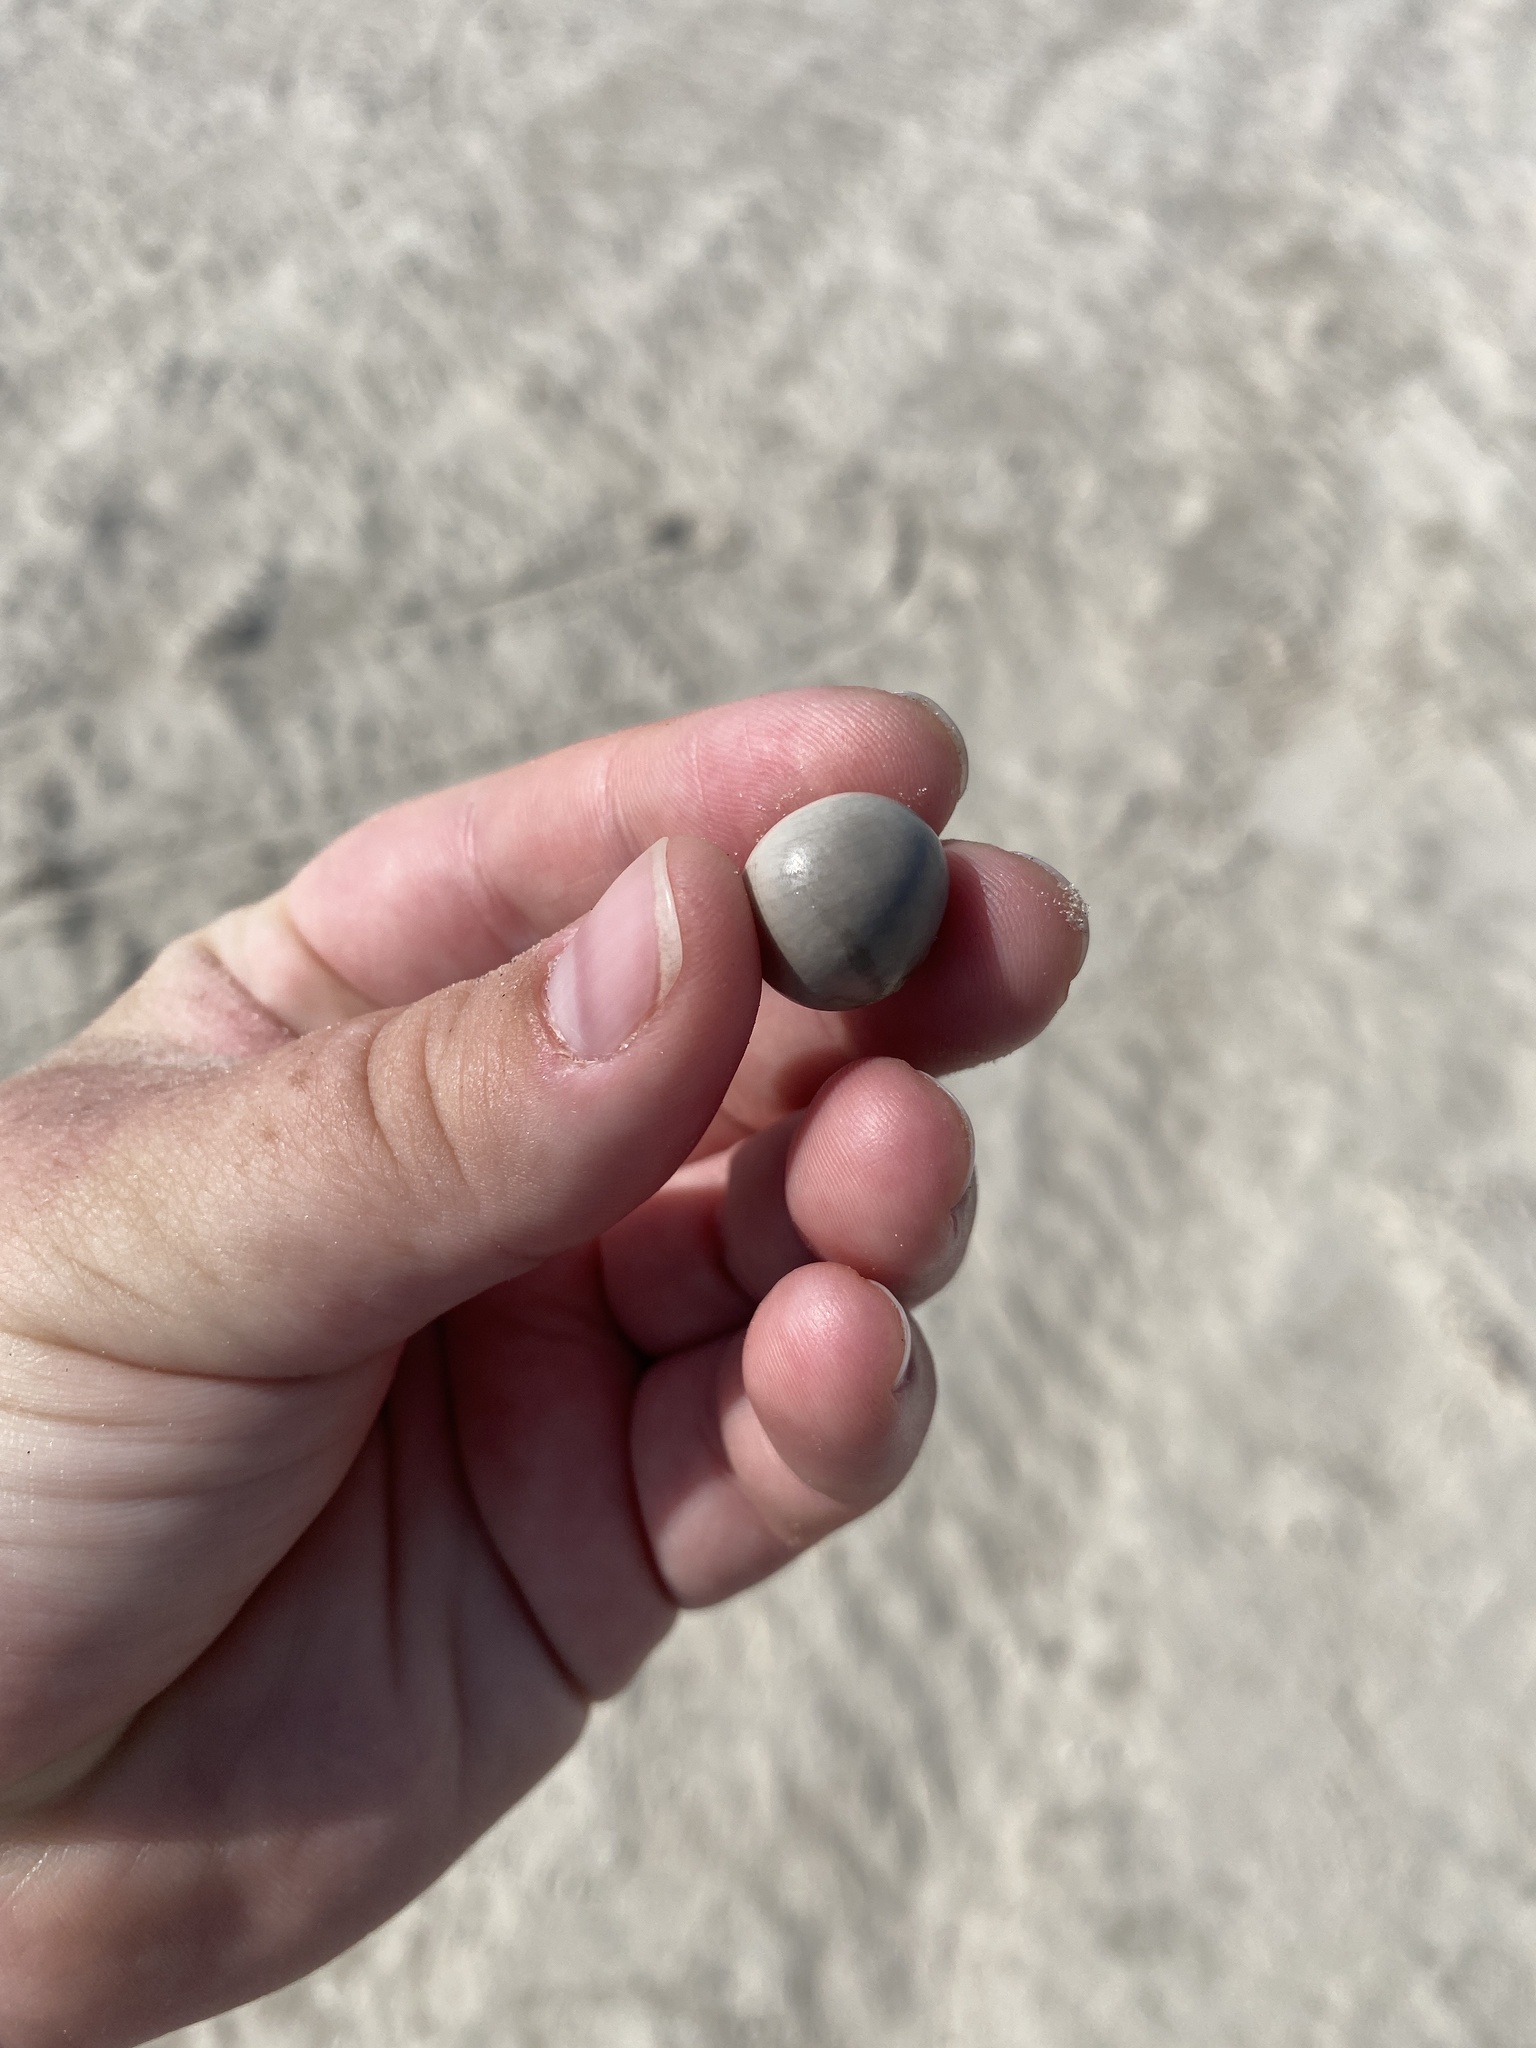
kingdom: Plantae
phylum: Tracheophyta
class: Magnoliopsida
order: Fabales
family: Fabaceae
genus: Guilandina
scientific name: Guilandina bonduc
